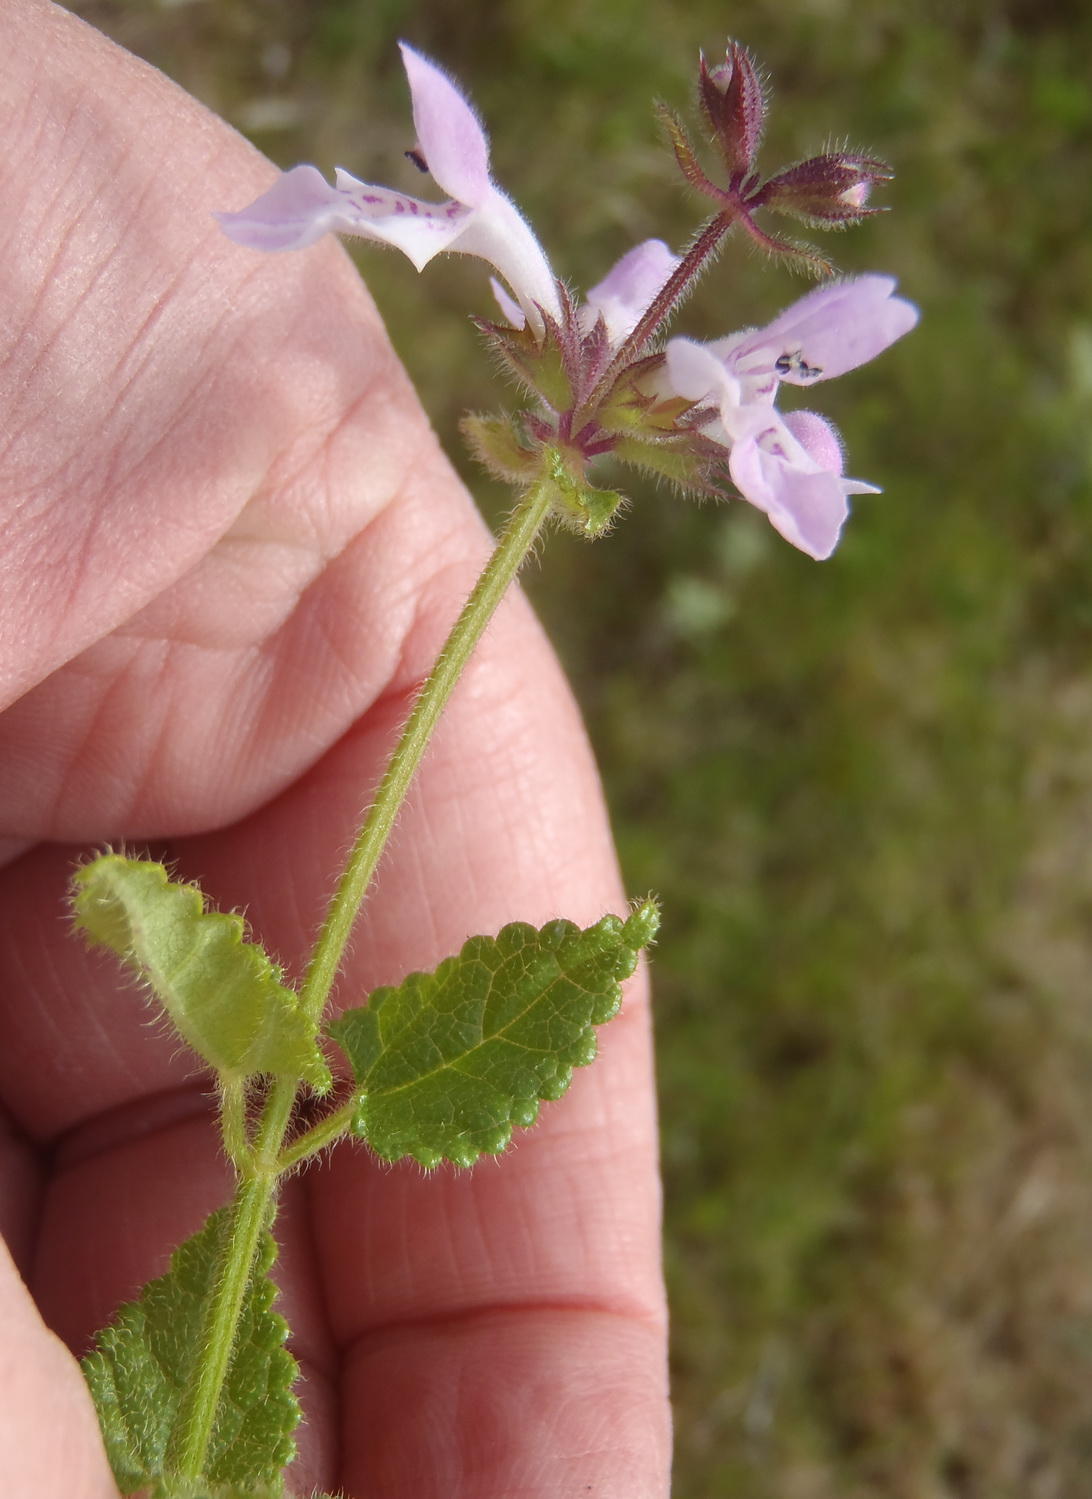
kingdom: Plantae
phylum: Tracheophyta
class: Magnoliopsida
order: Lamiales
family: Lamiaceae
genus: Stachys
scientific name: Stachys aethiopica
